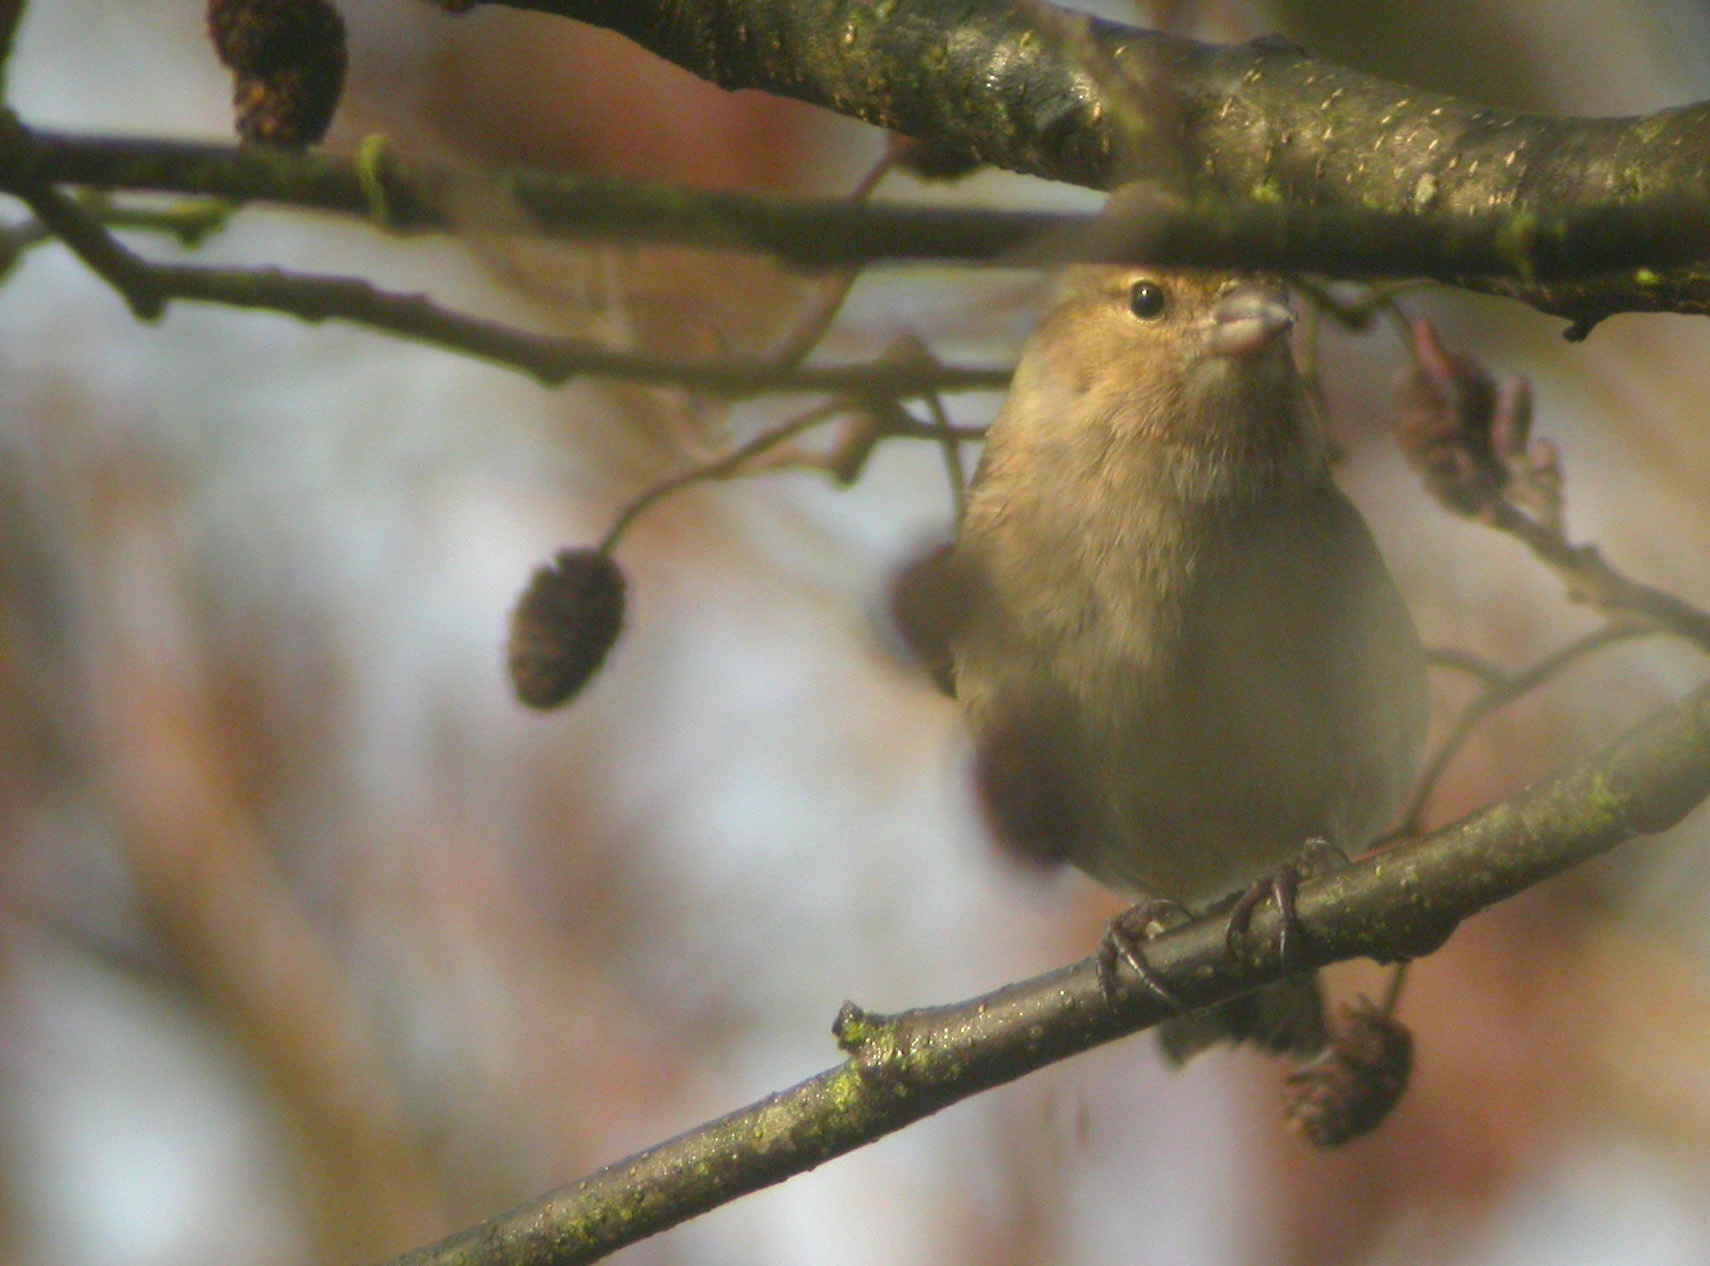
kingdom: Animalia
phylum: Chordata
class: Aves
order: Passeriformes
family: Fringillidae
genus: Fringilla
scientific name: Fringilla coelebs
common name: Common chaffinch
